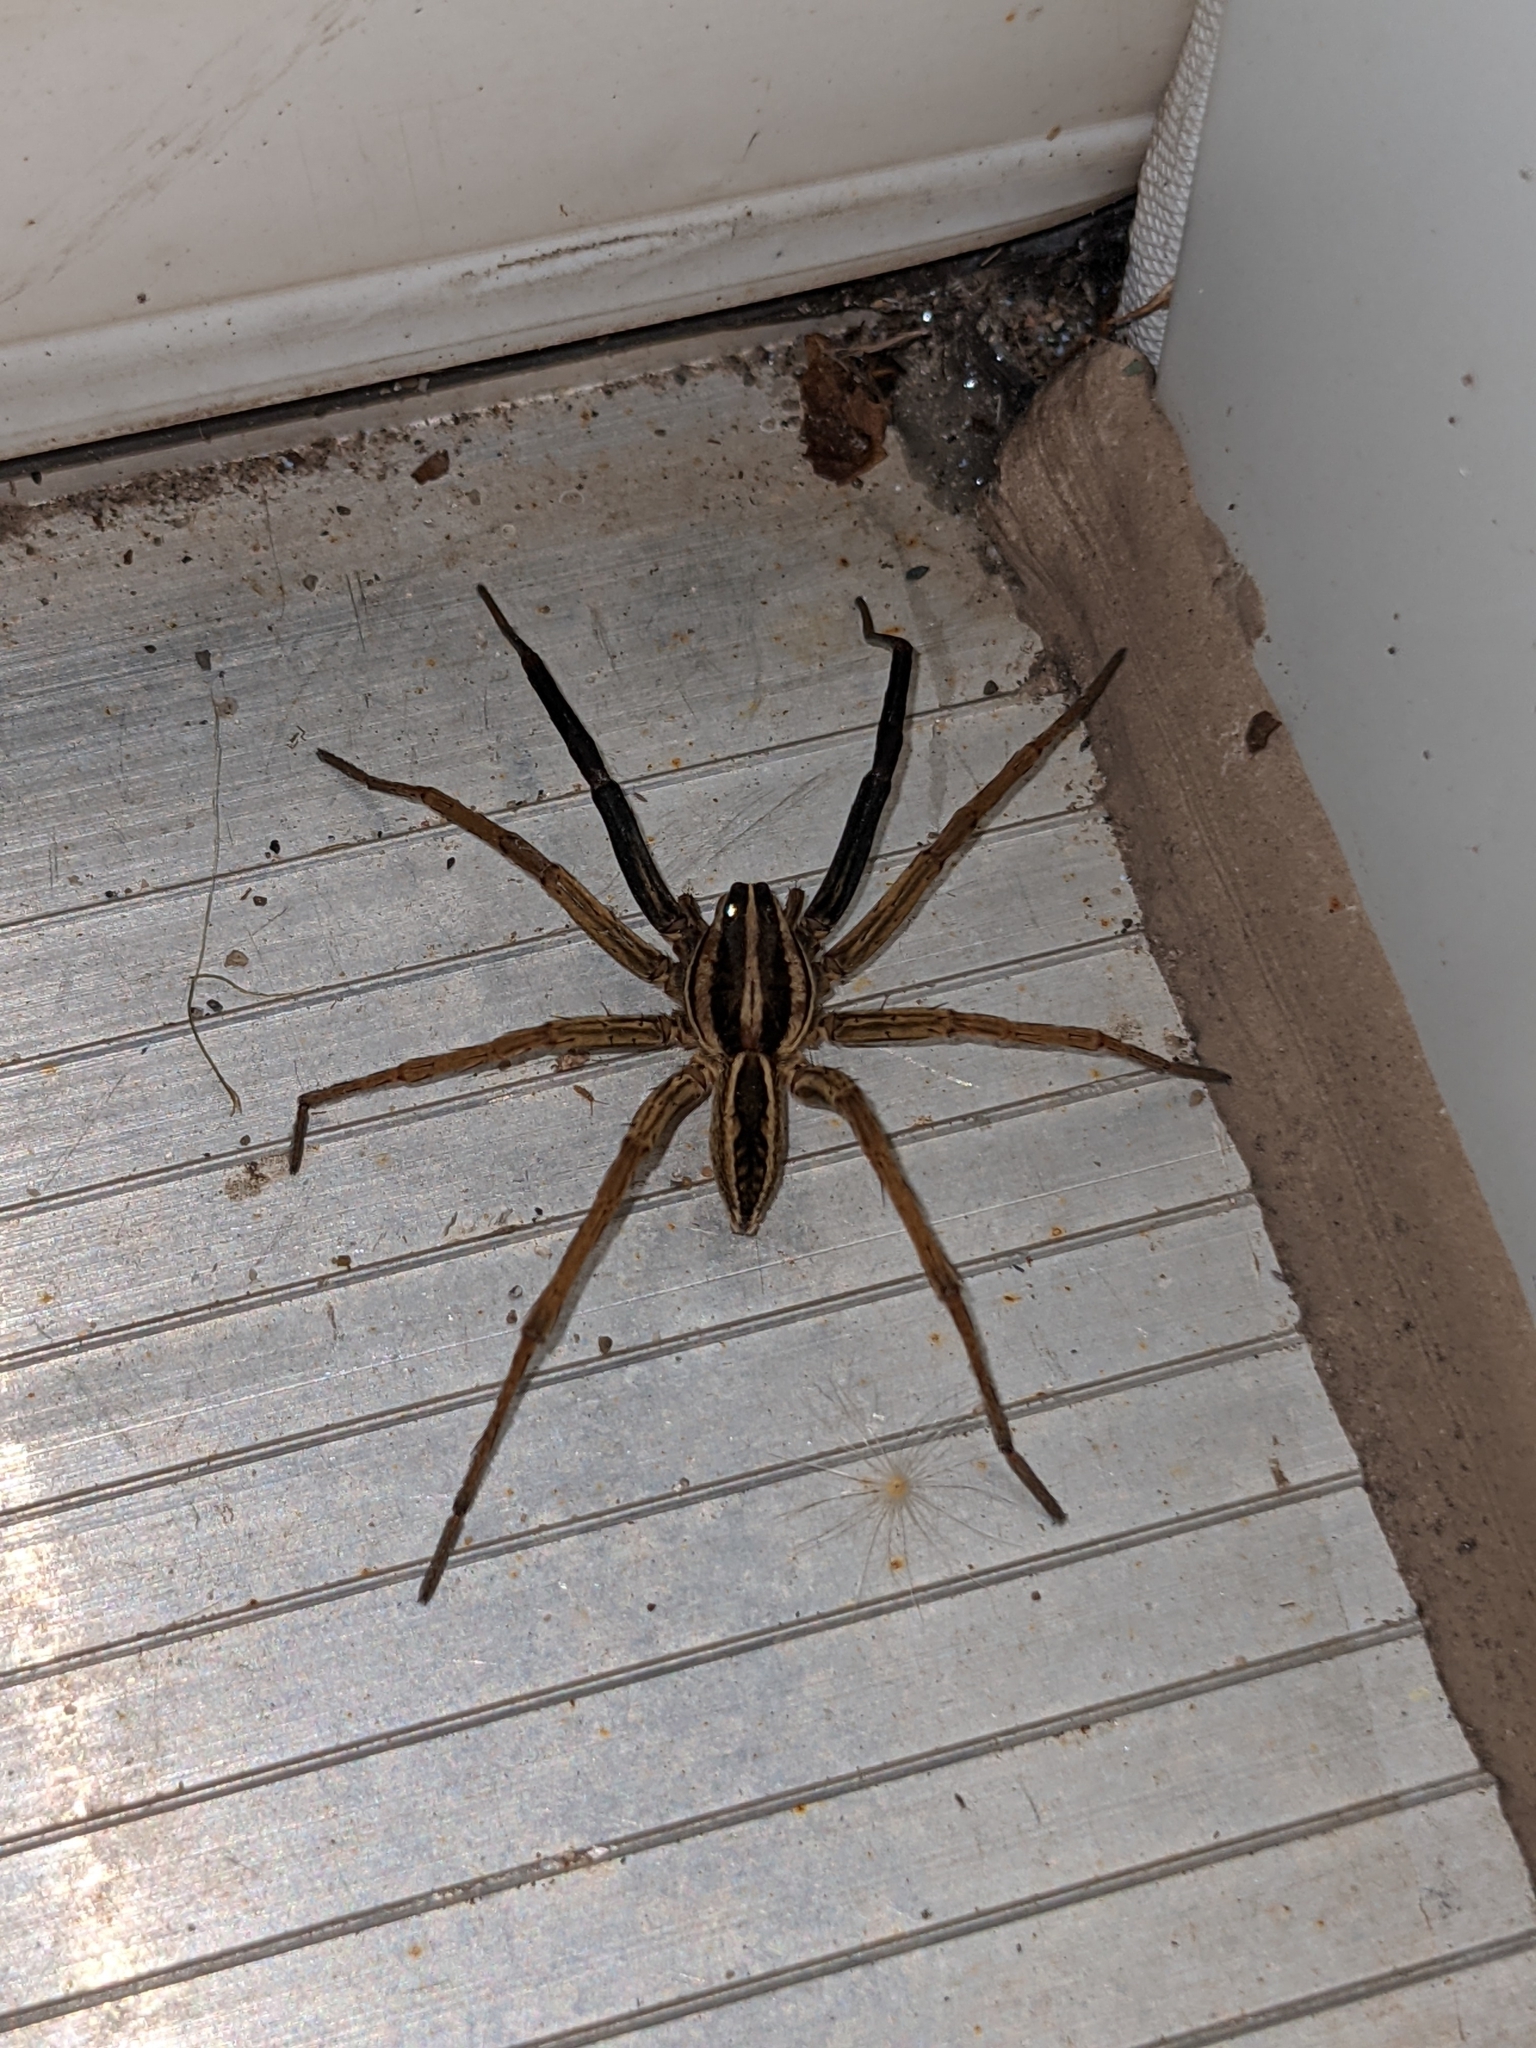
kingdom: Animalia
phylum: Arthropoda
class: Arachnida
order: Araneae
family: Lycosidae
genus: Rabidosa
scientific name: Rabidosa rabida
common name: Rabid wolf spider
